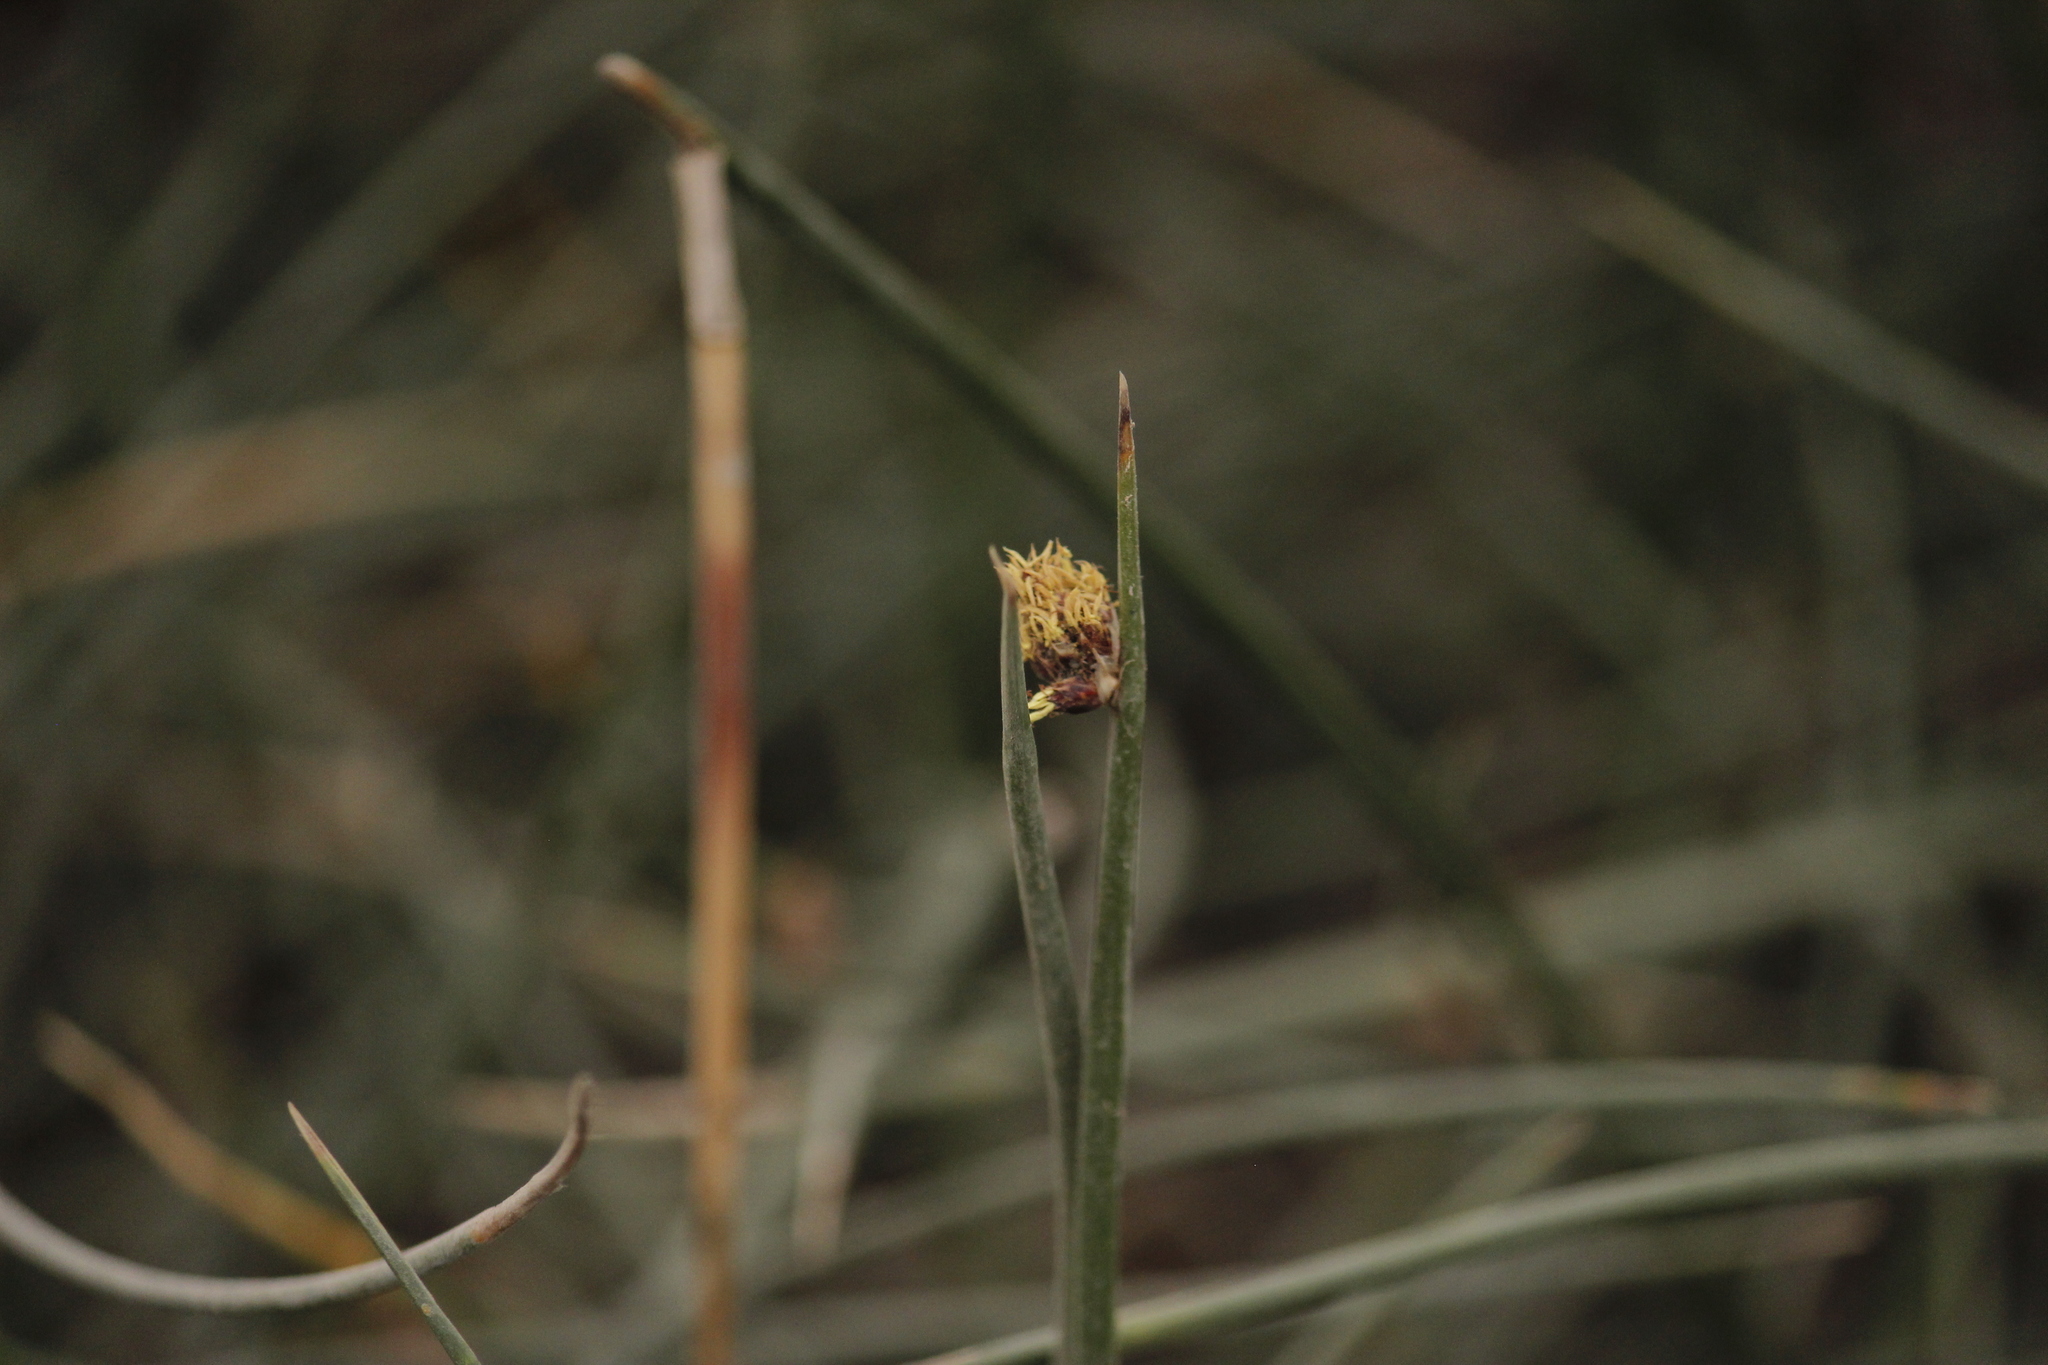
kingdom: Plantae
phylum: Tracheophyta
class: Liliopsida
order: Poales
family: Cyperaceae
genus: Schoenoplectus
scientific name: Schoenoplectus pungens
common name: Sharp club-rush
